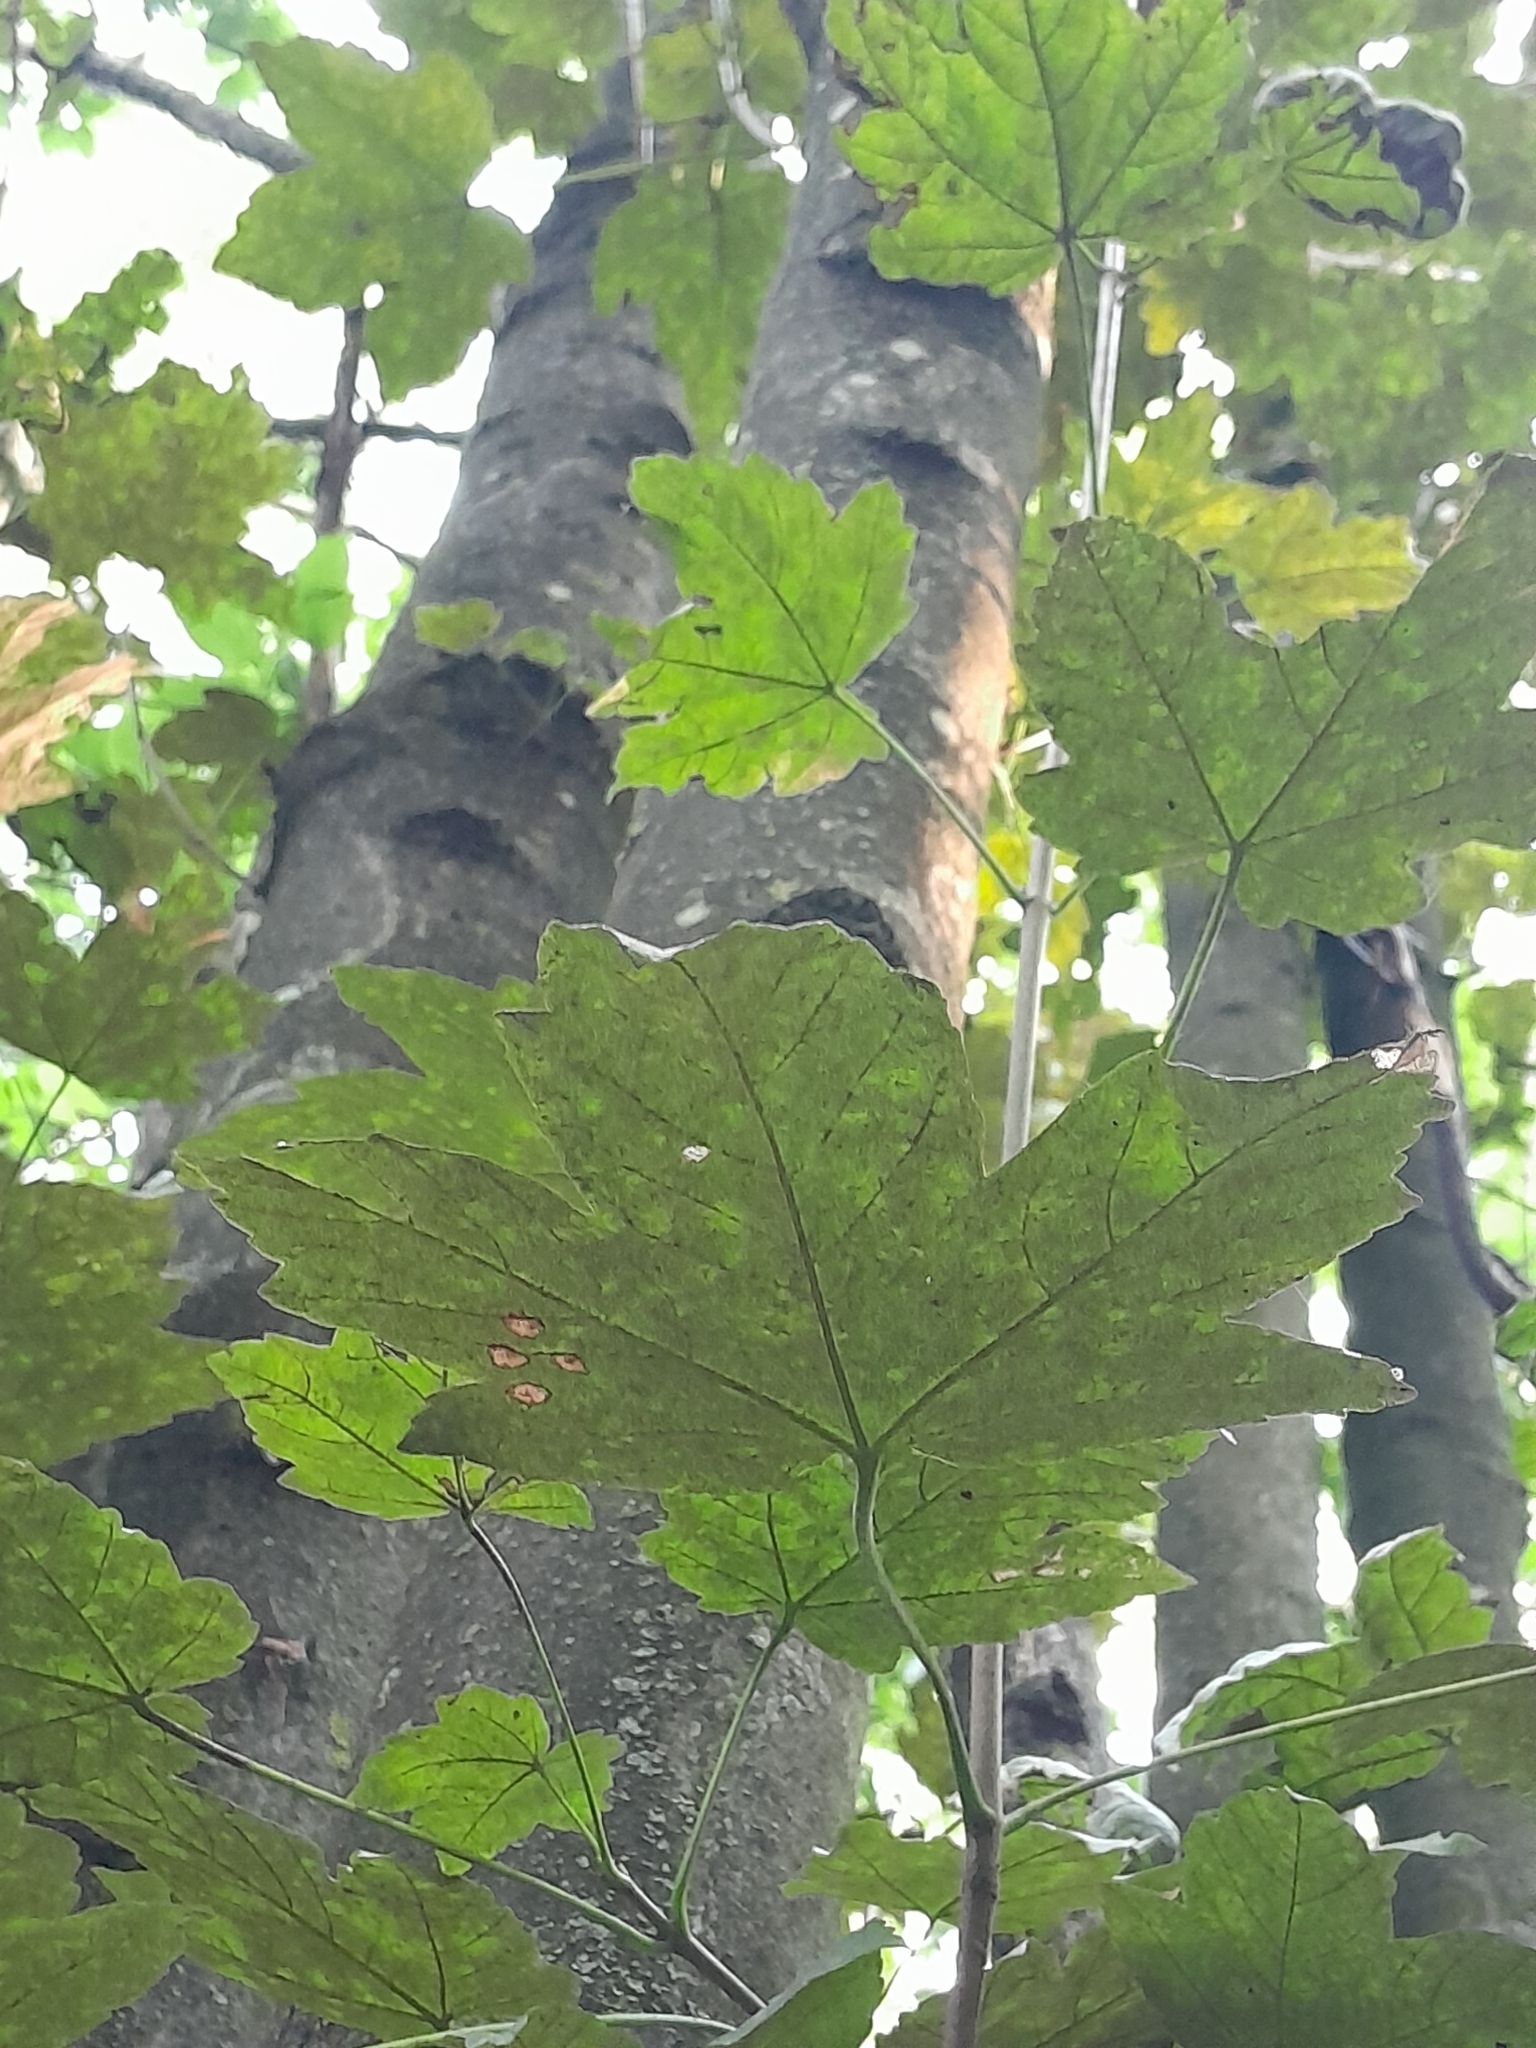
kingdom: Plantae
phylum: Tracheophyta
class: Magnoliopsida
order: Sapindales
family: Sapindaceae
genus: Acer
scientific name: Acer pseudoplatanus
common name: Sycamore
